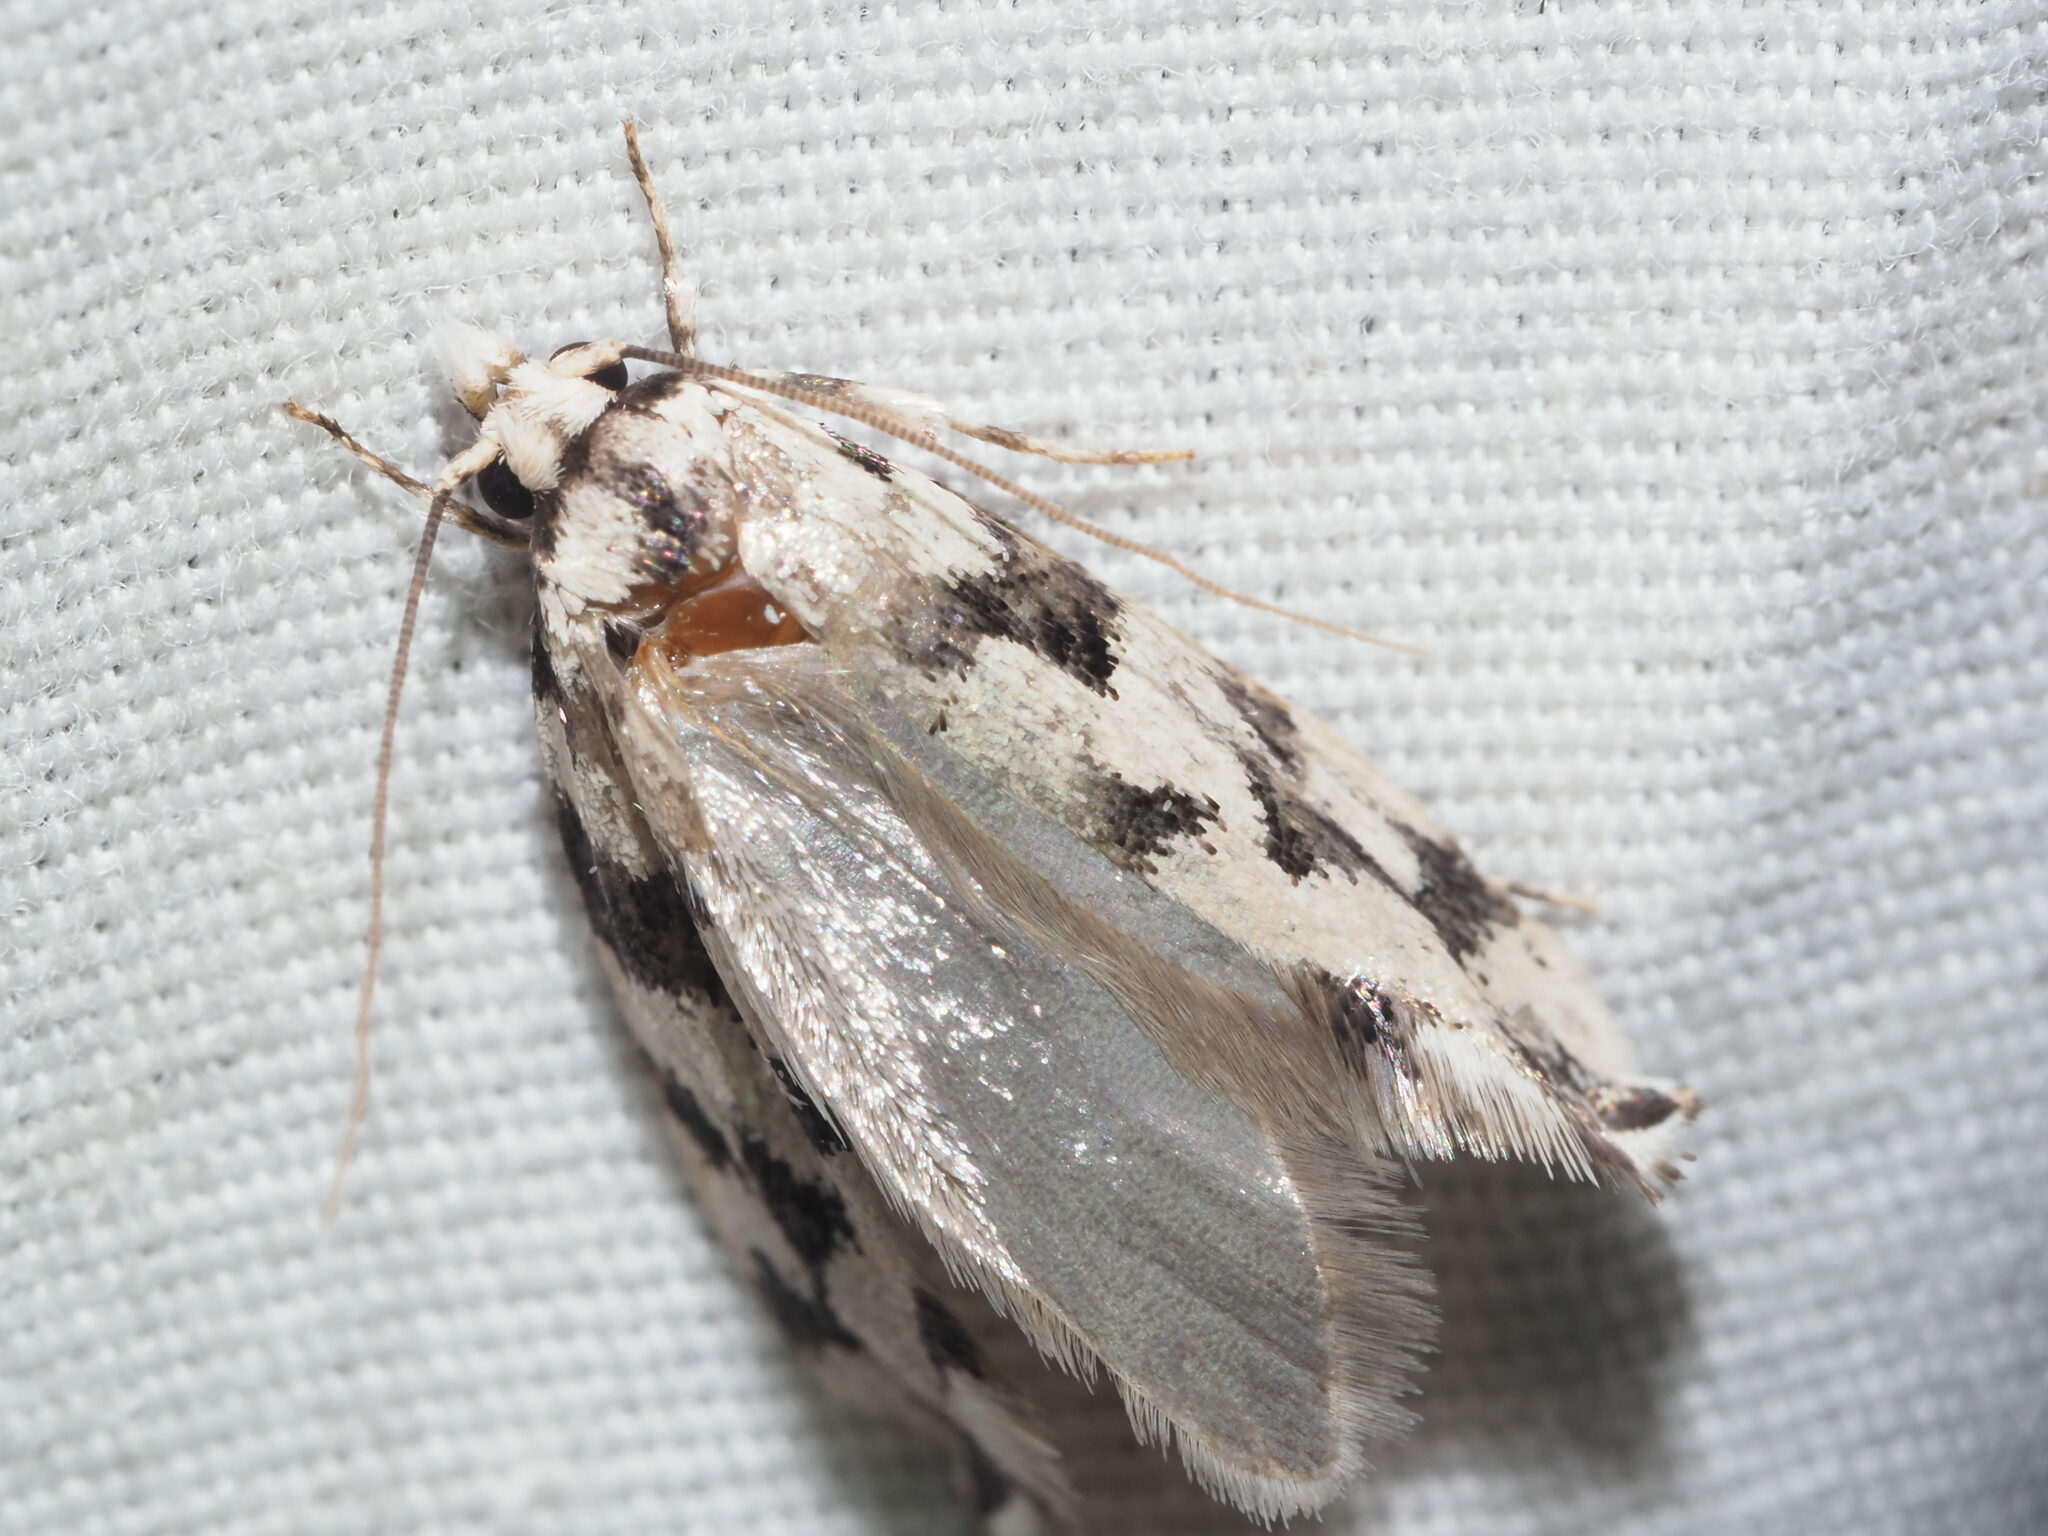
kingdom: Animalia
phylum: Arthropoda
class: Insecta
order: Lepidoptera
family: Tineidae
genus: Erechthias
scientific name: Erechthias simulans
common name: Fungus moth
